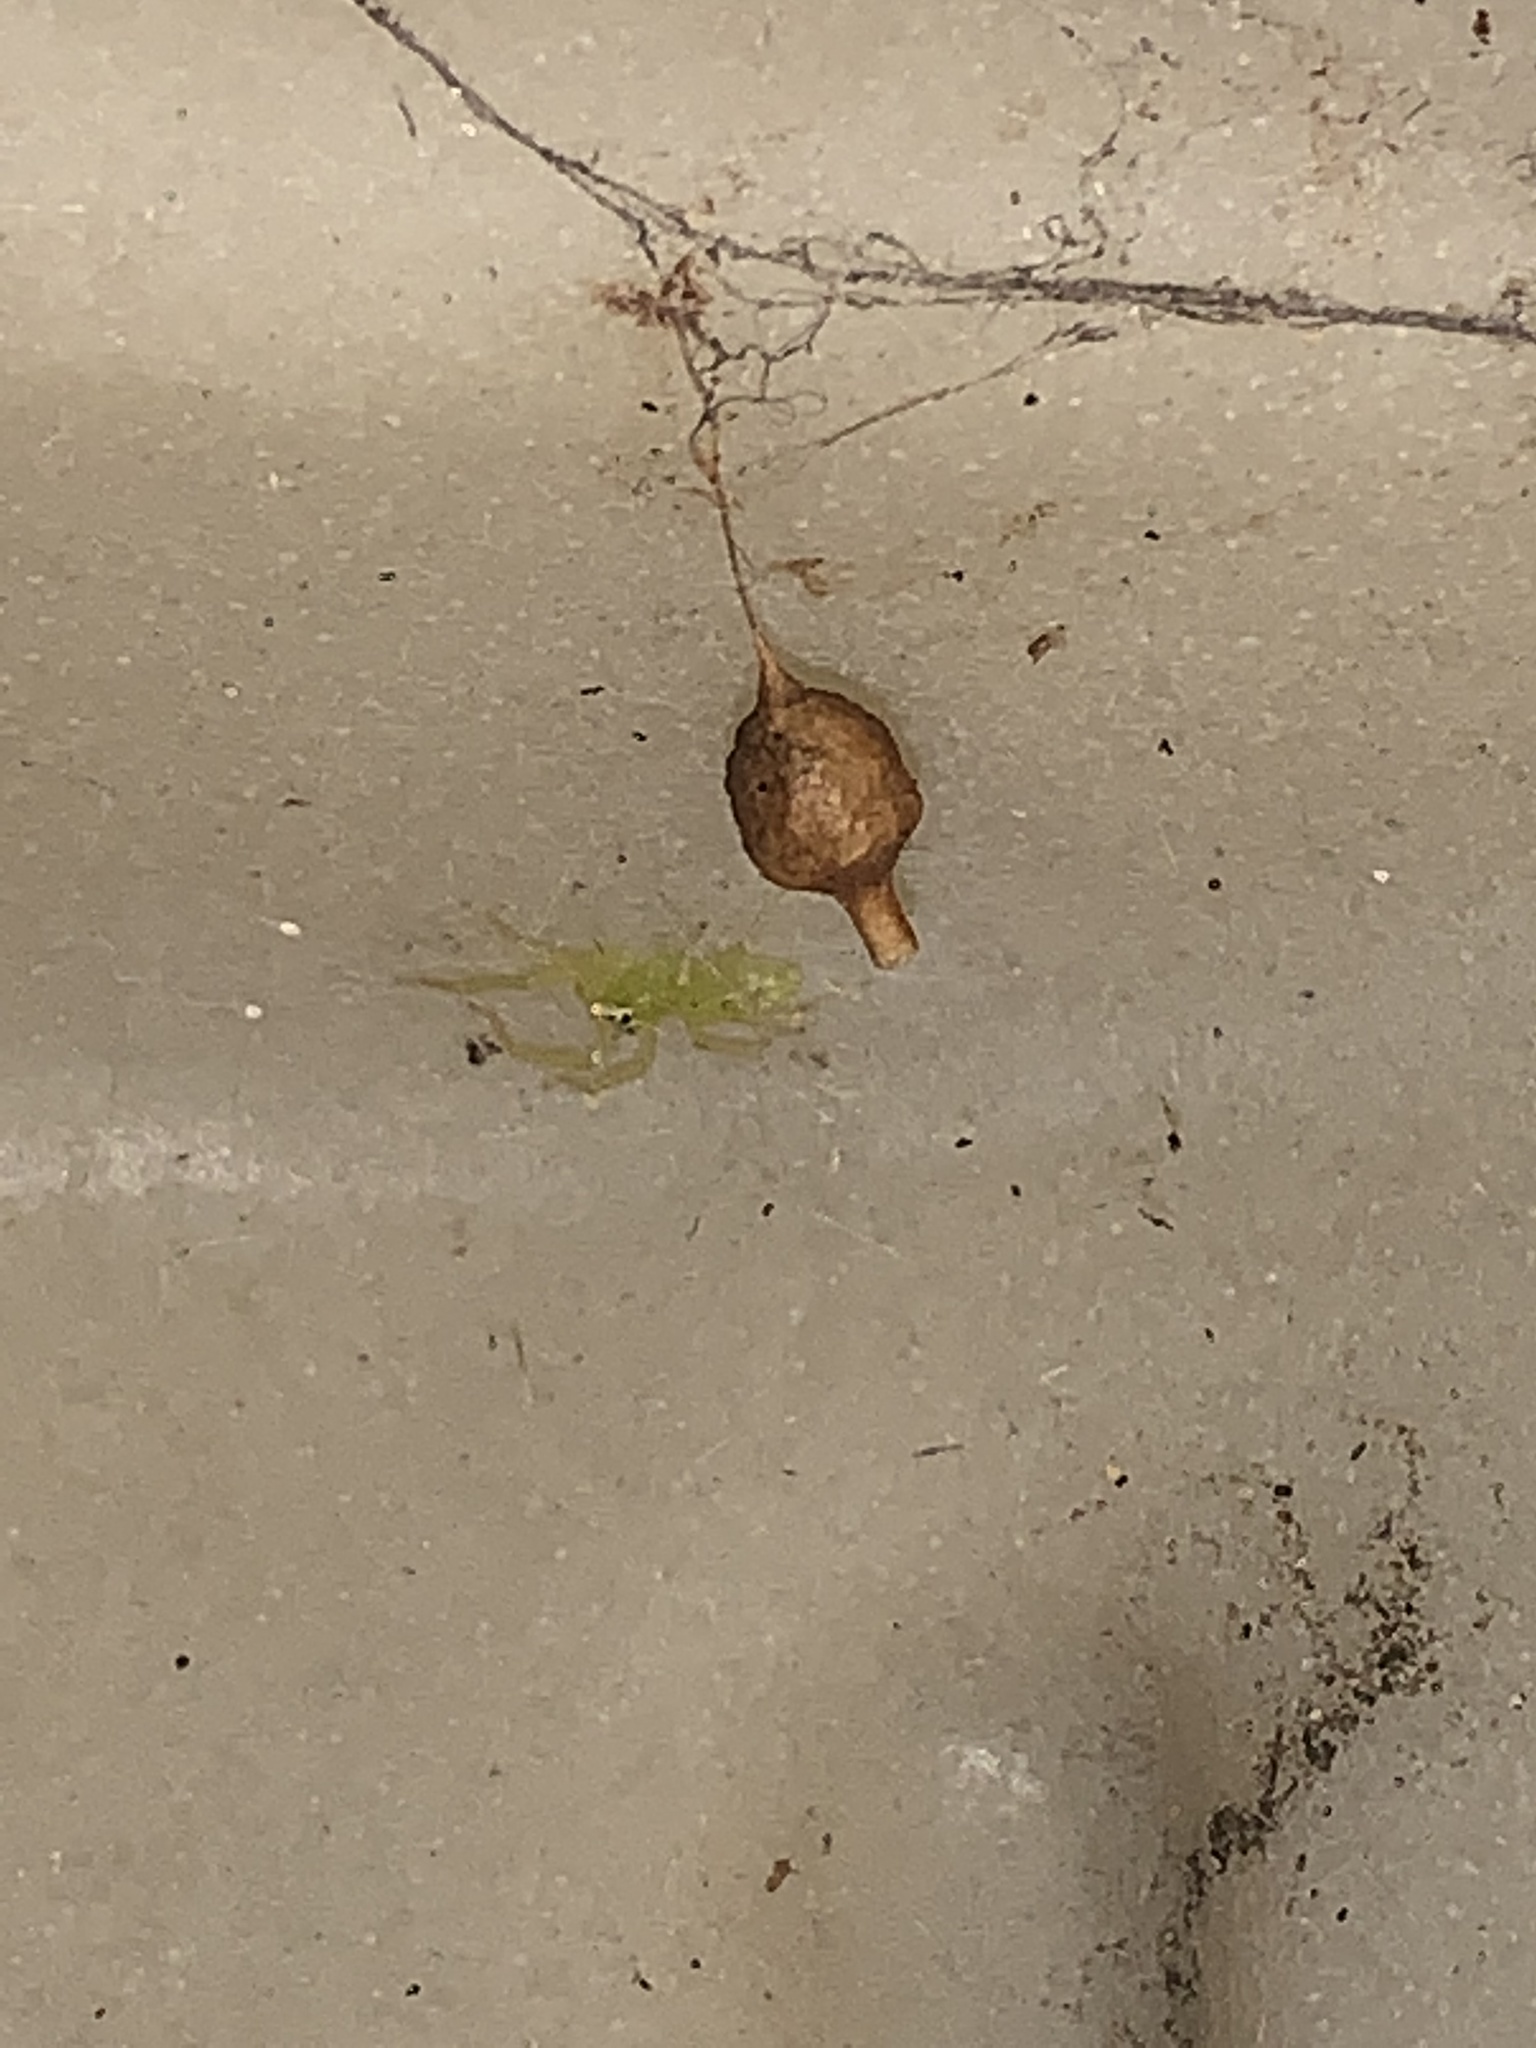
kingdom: Animalia
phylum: Arthropoda
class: Arachnida
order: Araneae
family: Salticidae
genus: Lyssomanes
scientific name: Lyssomanes viridis
